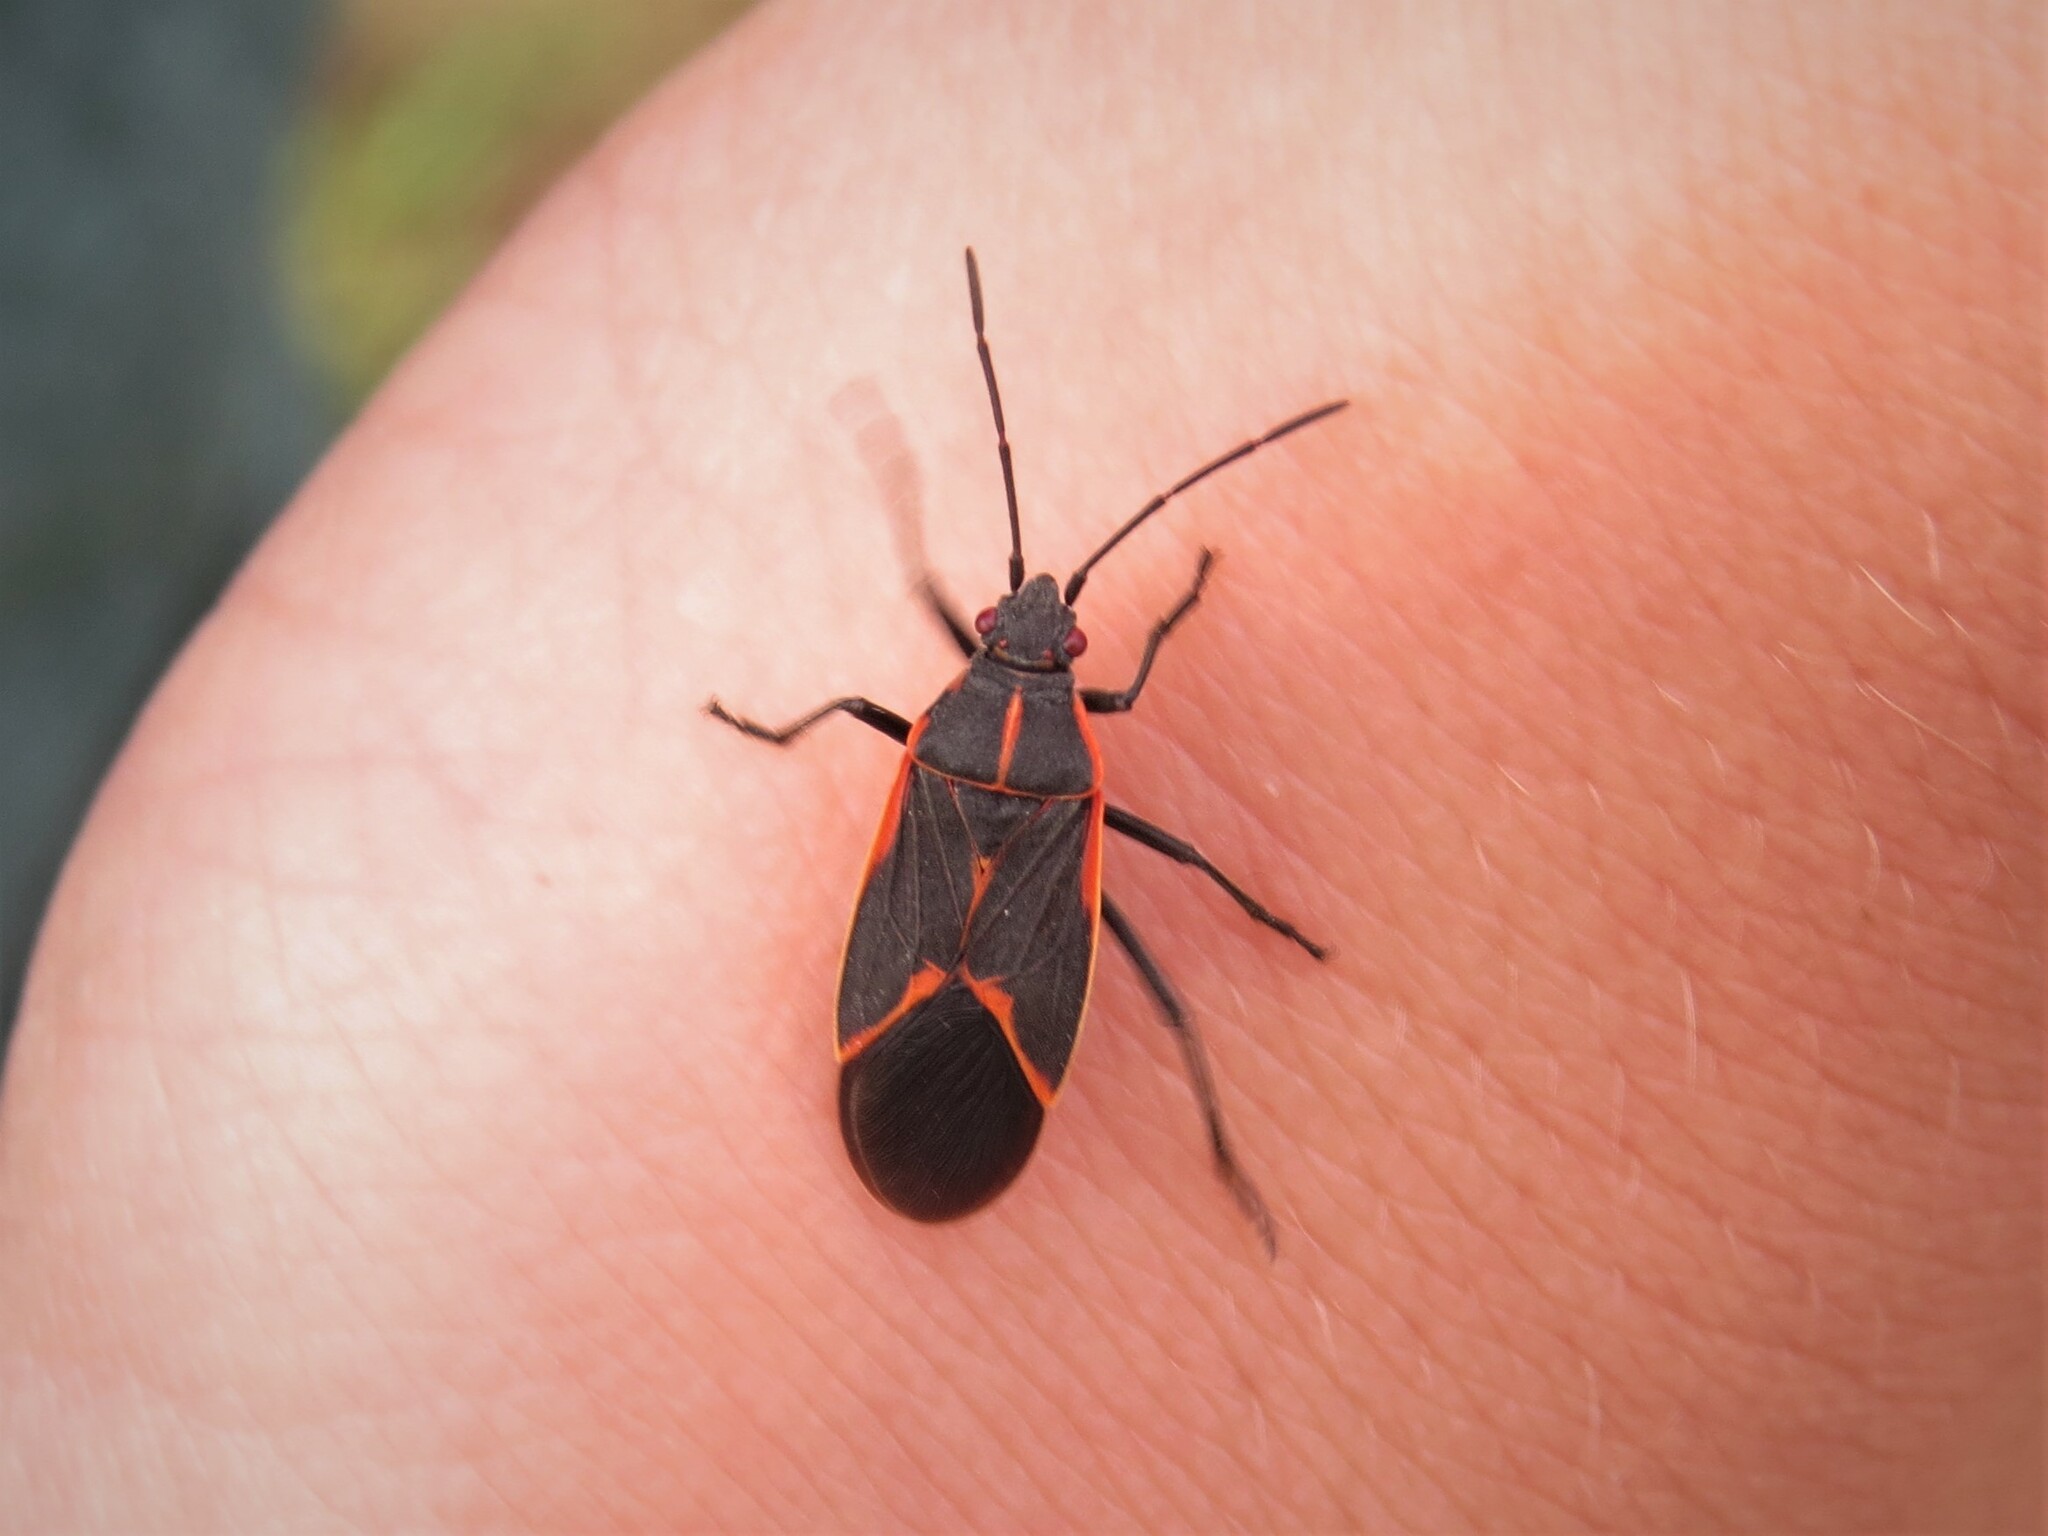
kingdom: Animalia
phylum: Arthropoda
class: Insecta
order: Hemiptera
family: Rhopalidae
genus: Boisea
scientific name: Boisea trivittata
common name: Boxelder bug
